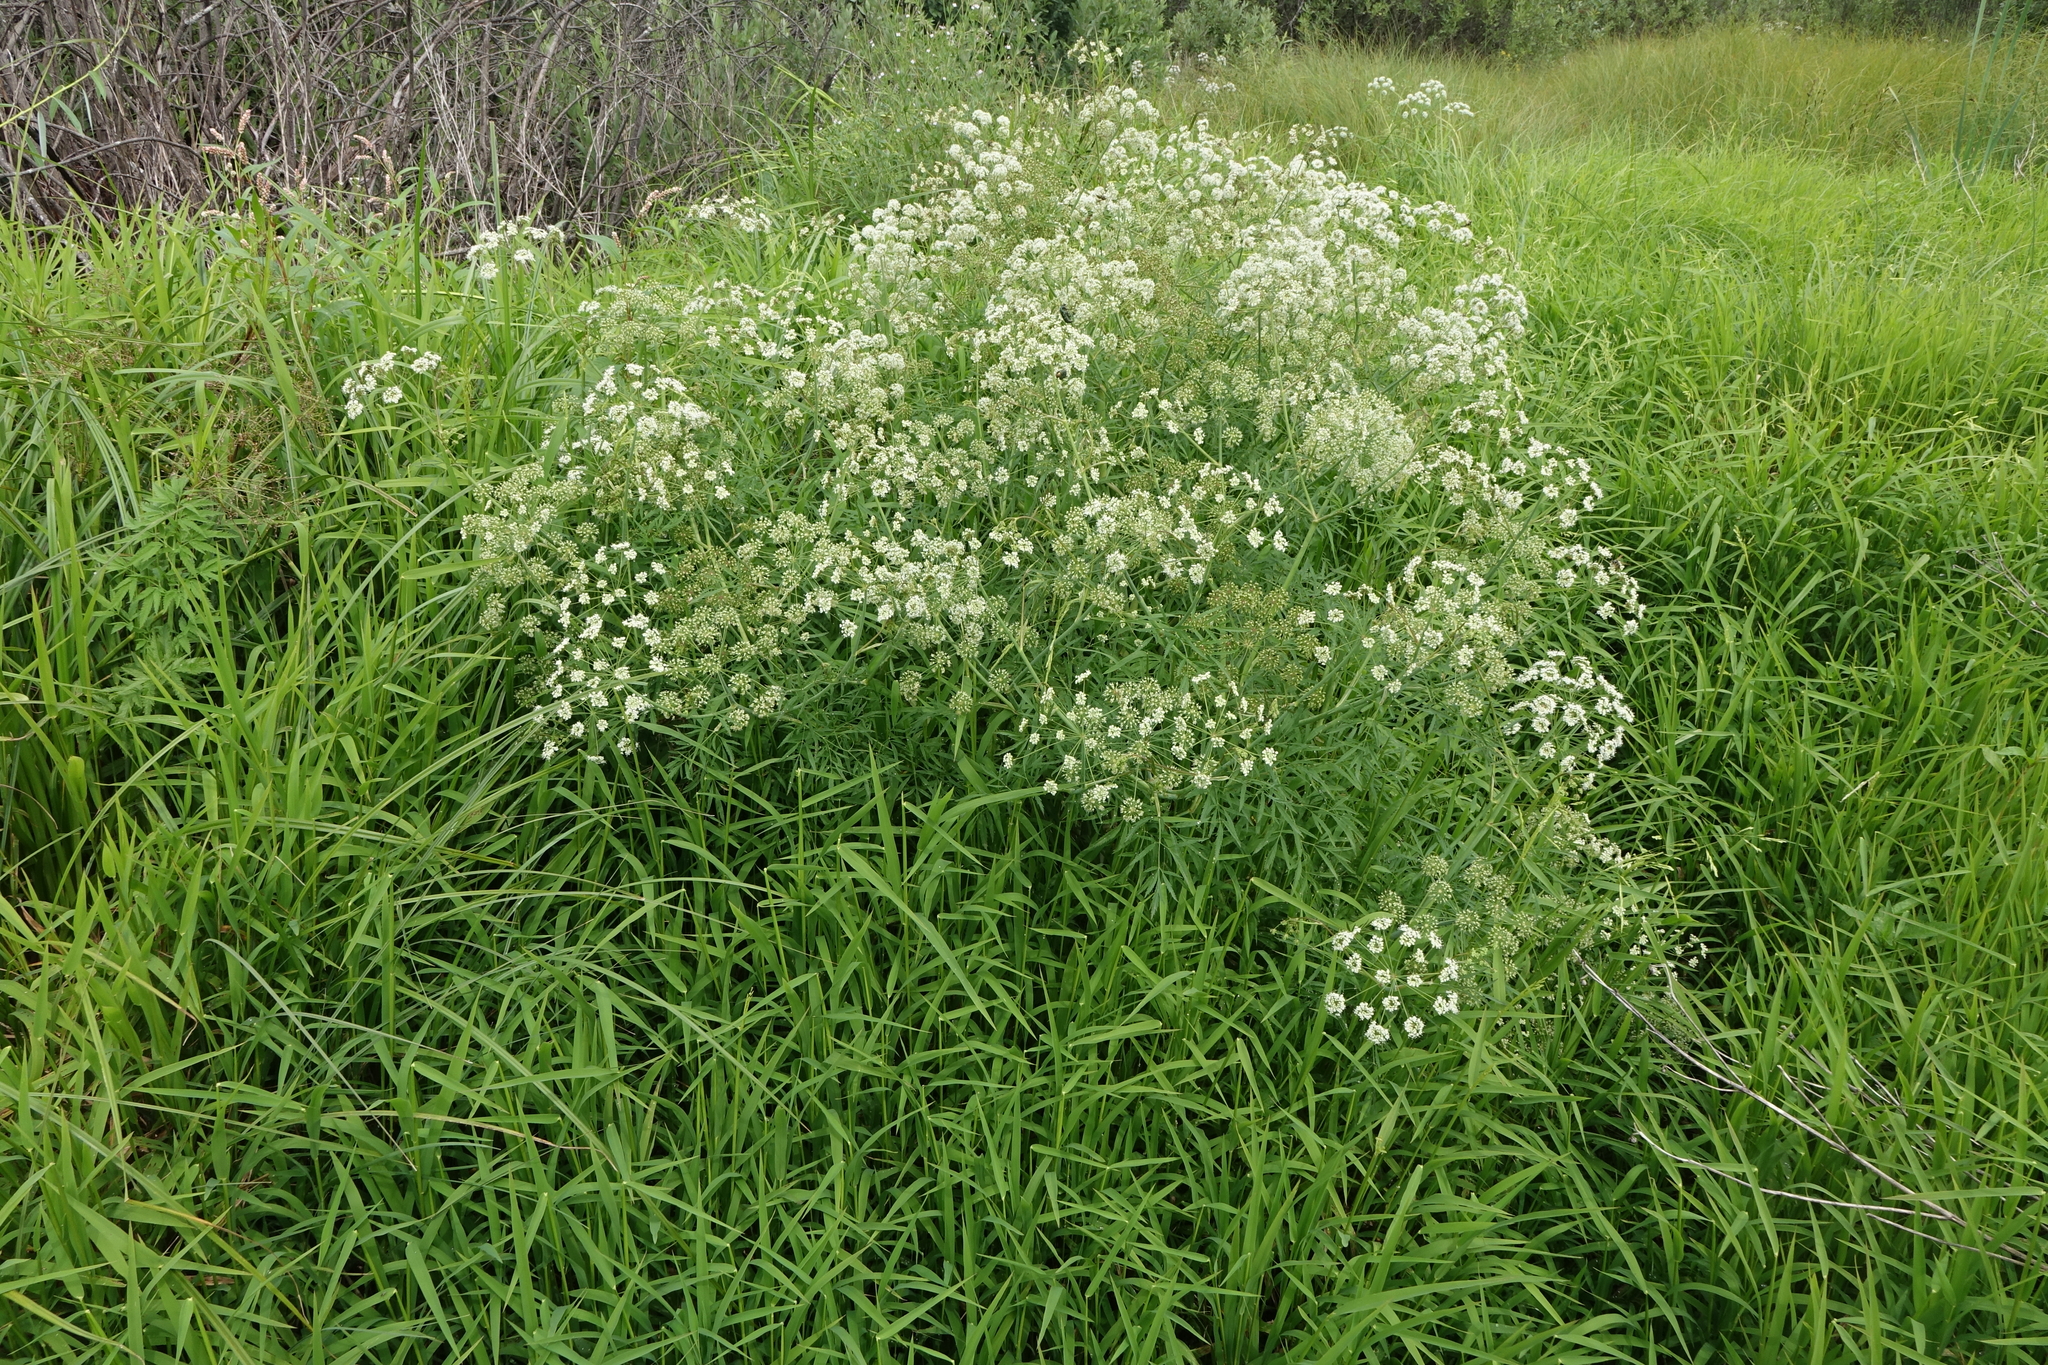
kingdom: Plantae
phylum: Tracheophyta
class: Magnoliopsida
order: Apiales
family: Apiaceae
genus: Cicuta
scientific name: Cicuta virosa
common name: Cowbane
